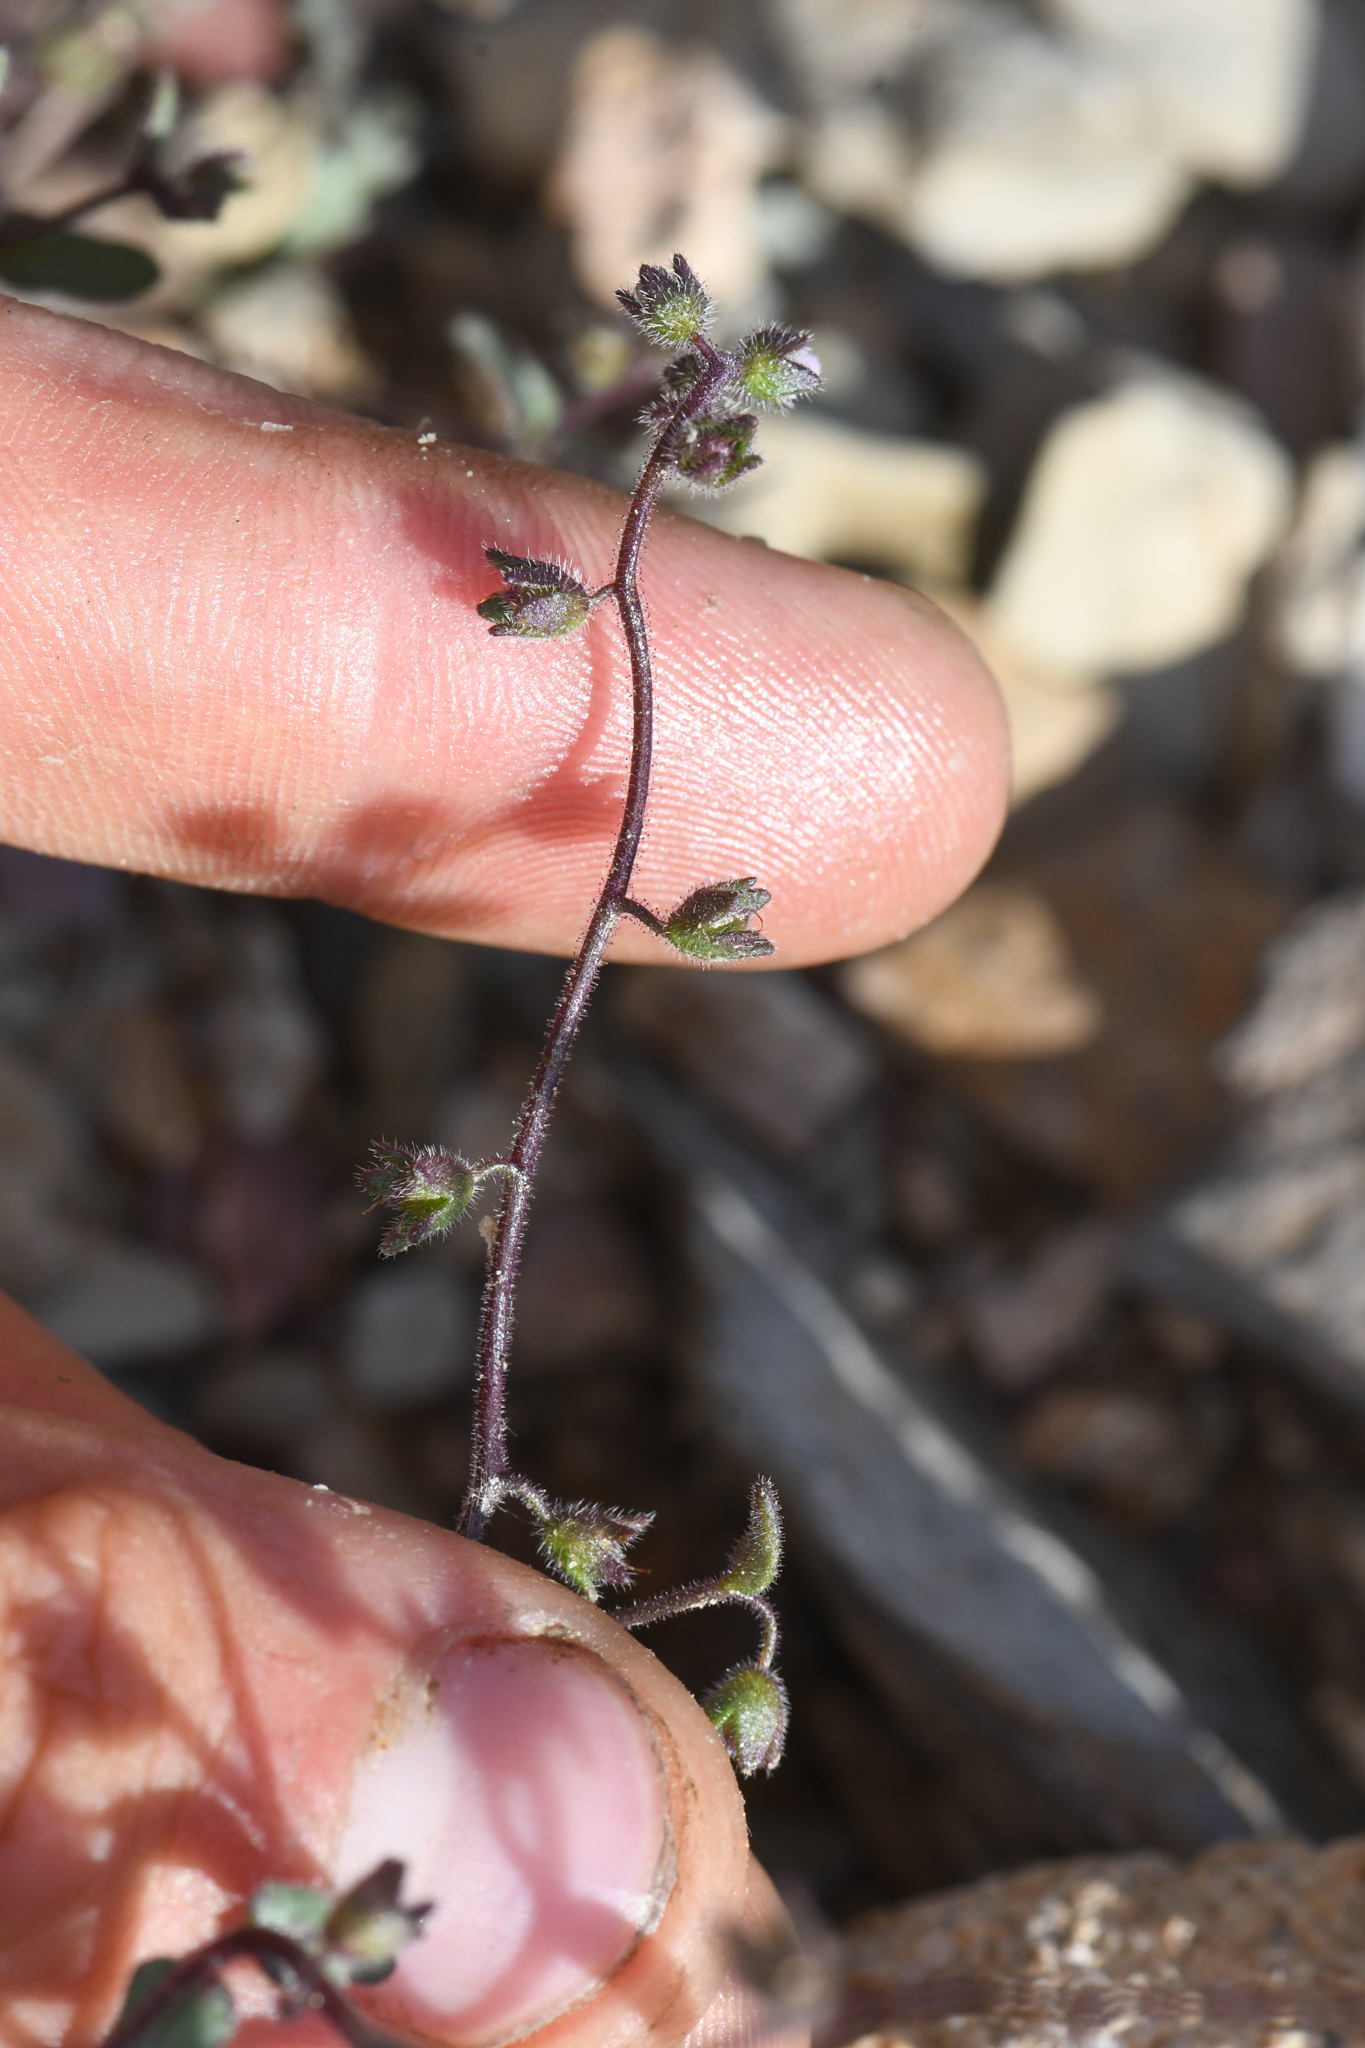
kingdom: Plantae
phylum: Tracheophyta
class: Magnoliopsida
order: Boraginales
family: Hydrophyllaceae
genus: Eucrypta
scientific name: Eucrypta micrantha
